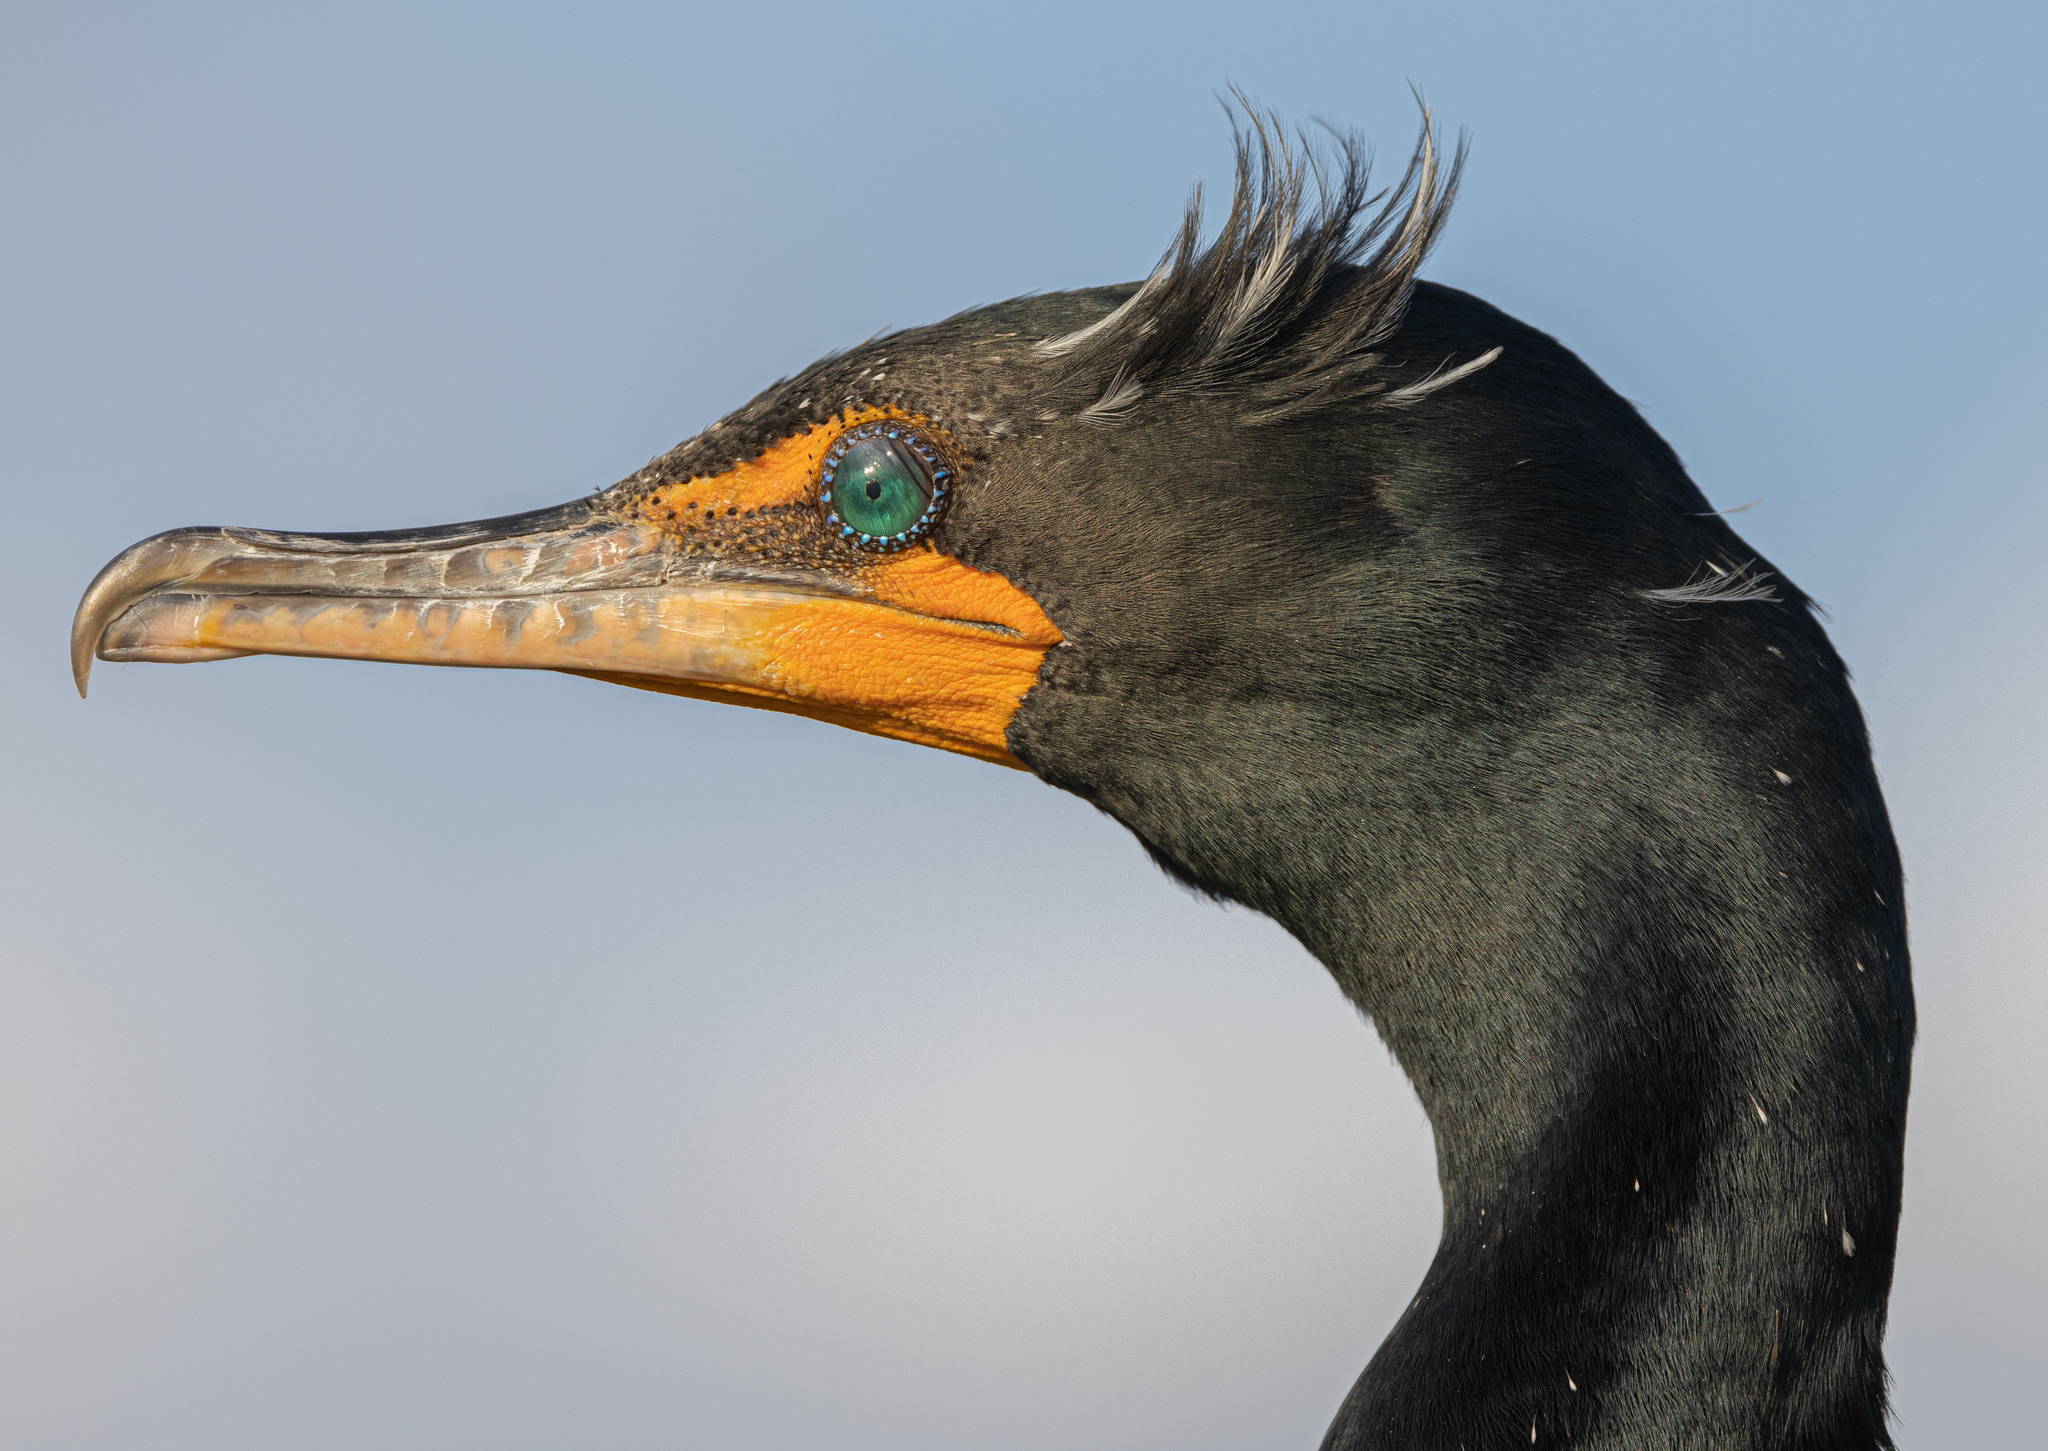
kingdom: Animalia
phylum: Chordata
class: Aves
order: Suliformes
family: Phalacrocoracidae
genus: Phalacrocorax
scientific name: Phalacrocorax auritus
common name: Double-crested cormorant
